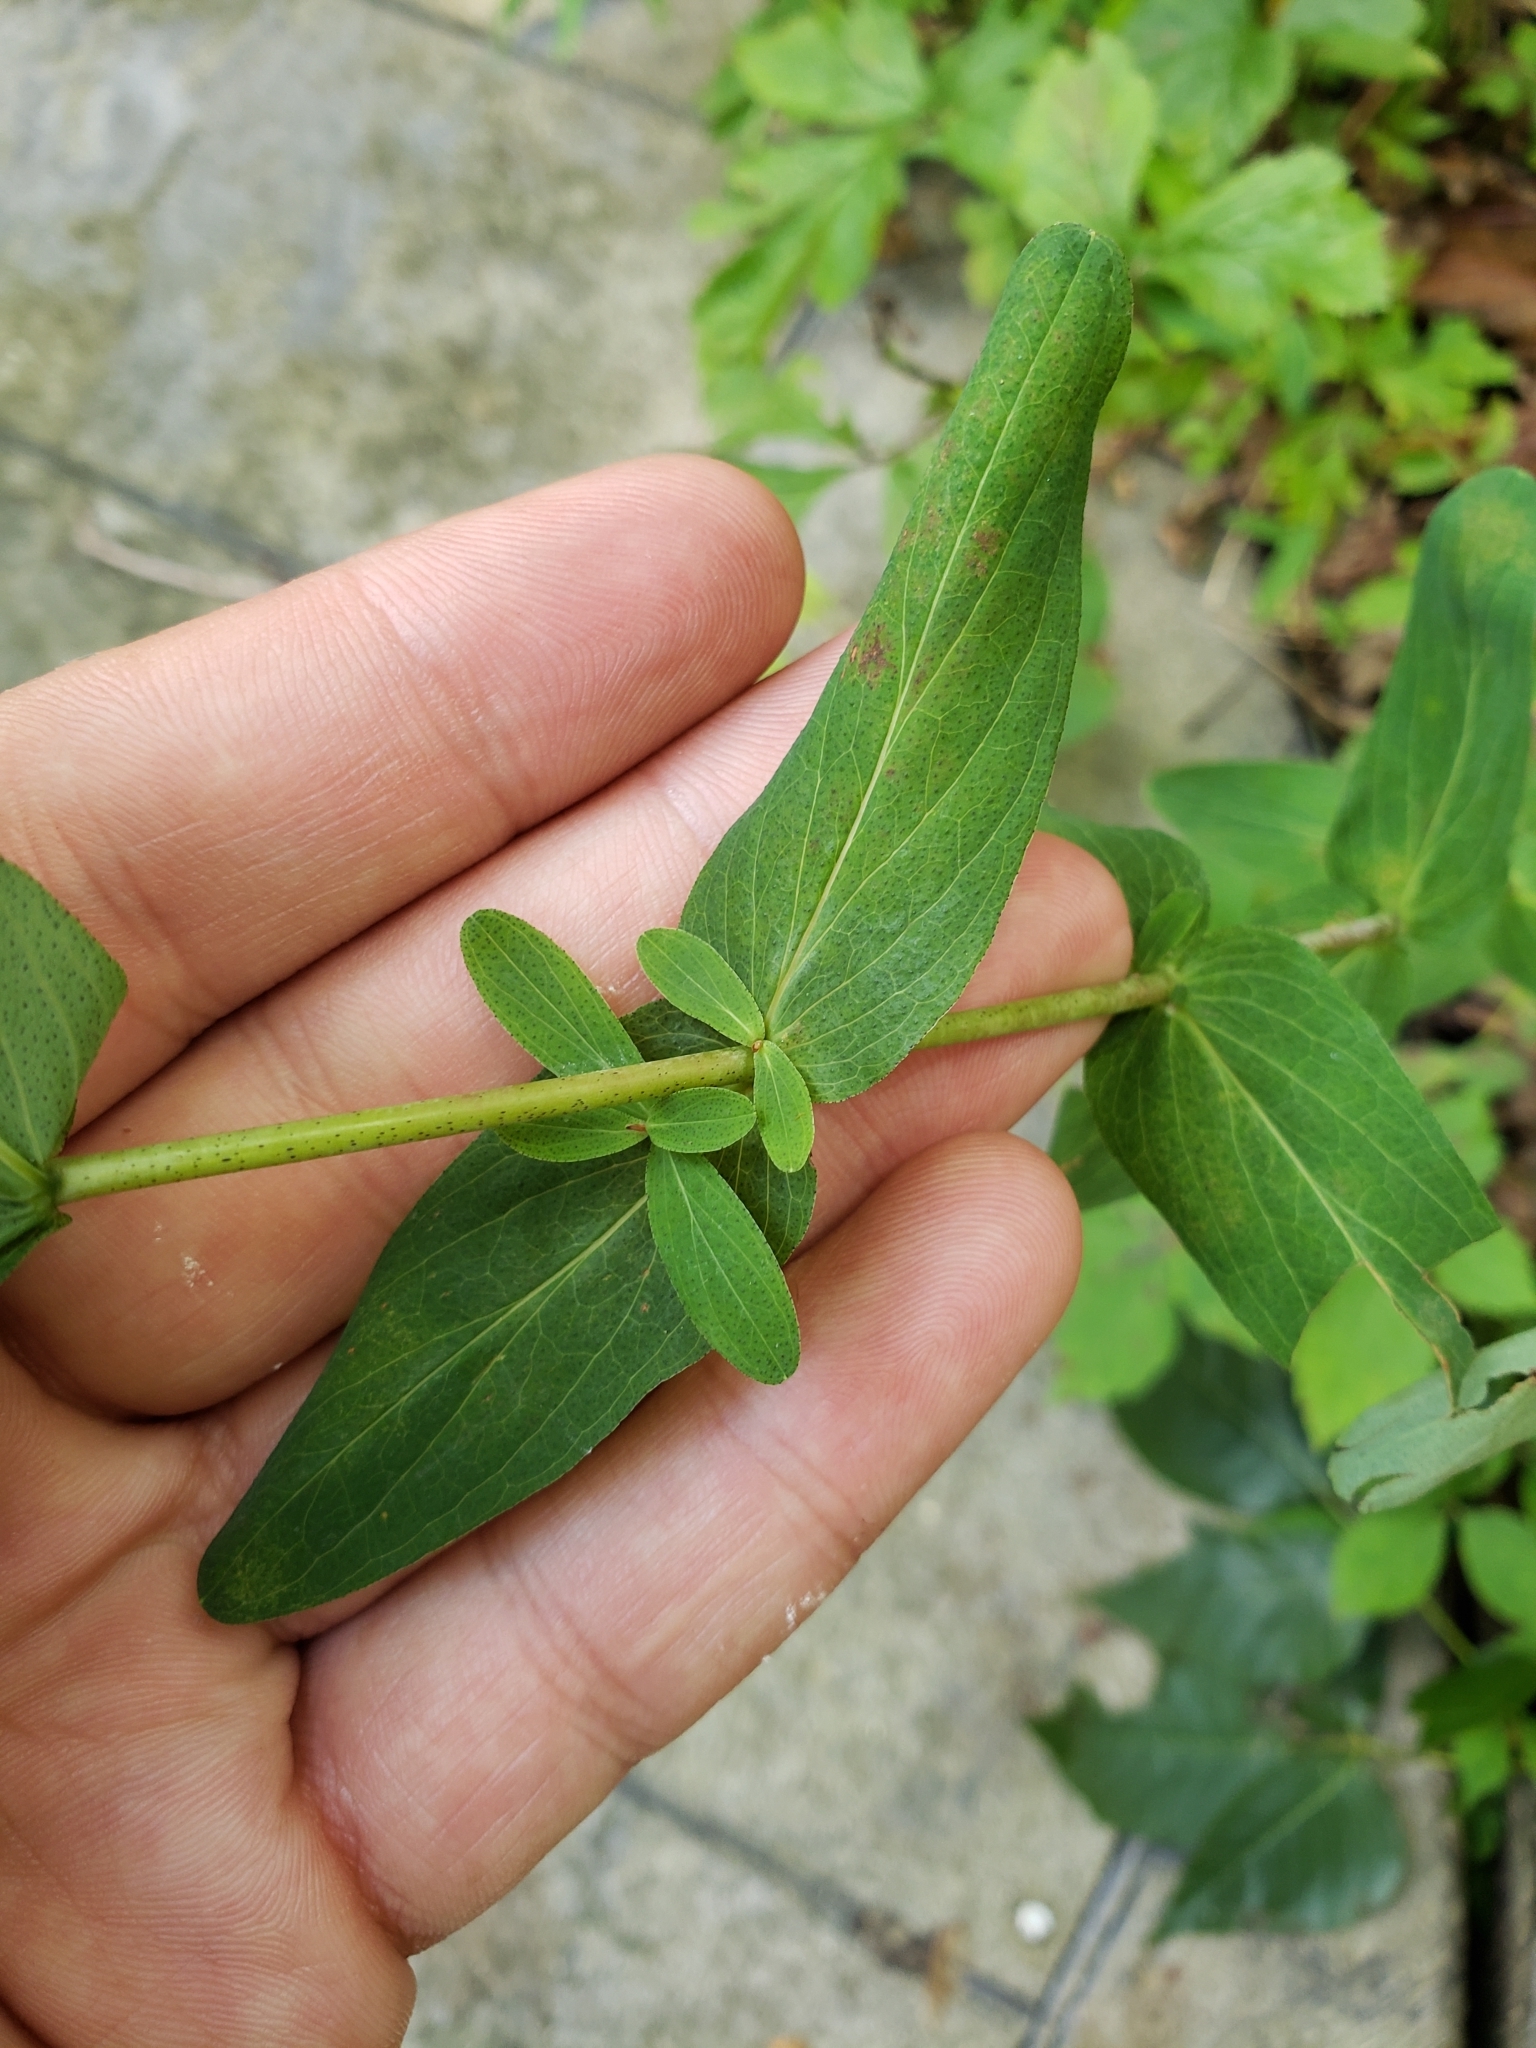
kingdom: Plantae
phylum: Tracheophyta
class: Magnoliopsida
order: Malpighiales
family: Hypericaceae
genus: Hypericum
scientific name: Hypericum punctatum
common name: Spotted st. john's-wort
